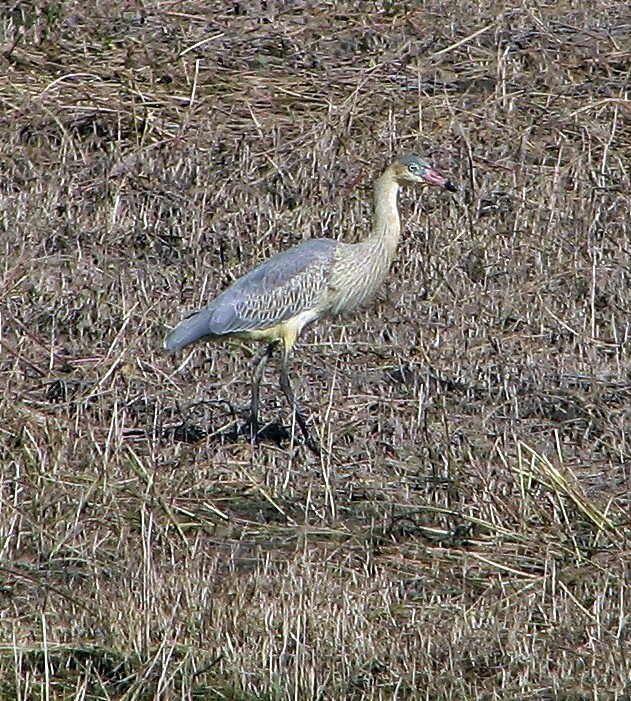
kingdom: Animalia
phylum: Chordata
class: Aves
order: Pelecaniformes
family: Ardeidae
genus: Syrigma
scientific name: Syrigma sibilatrix
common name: Whistling heron
